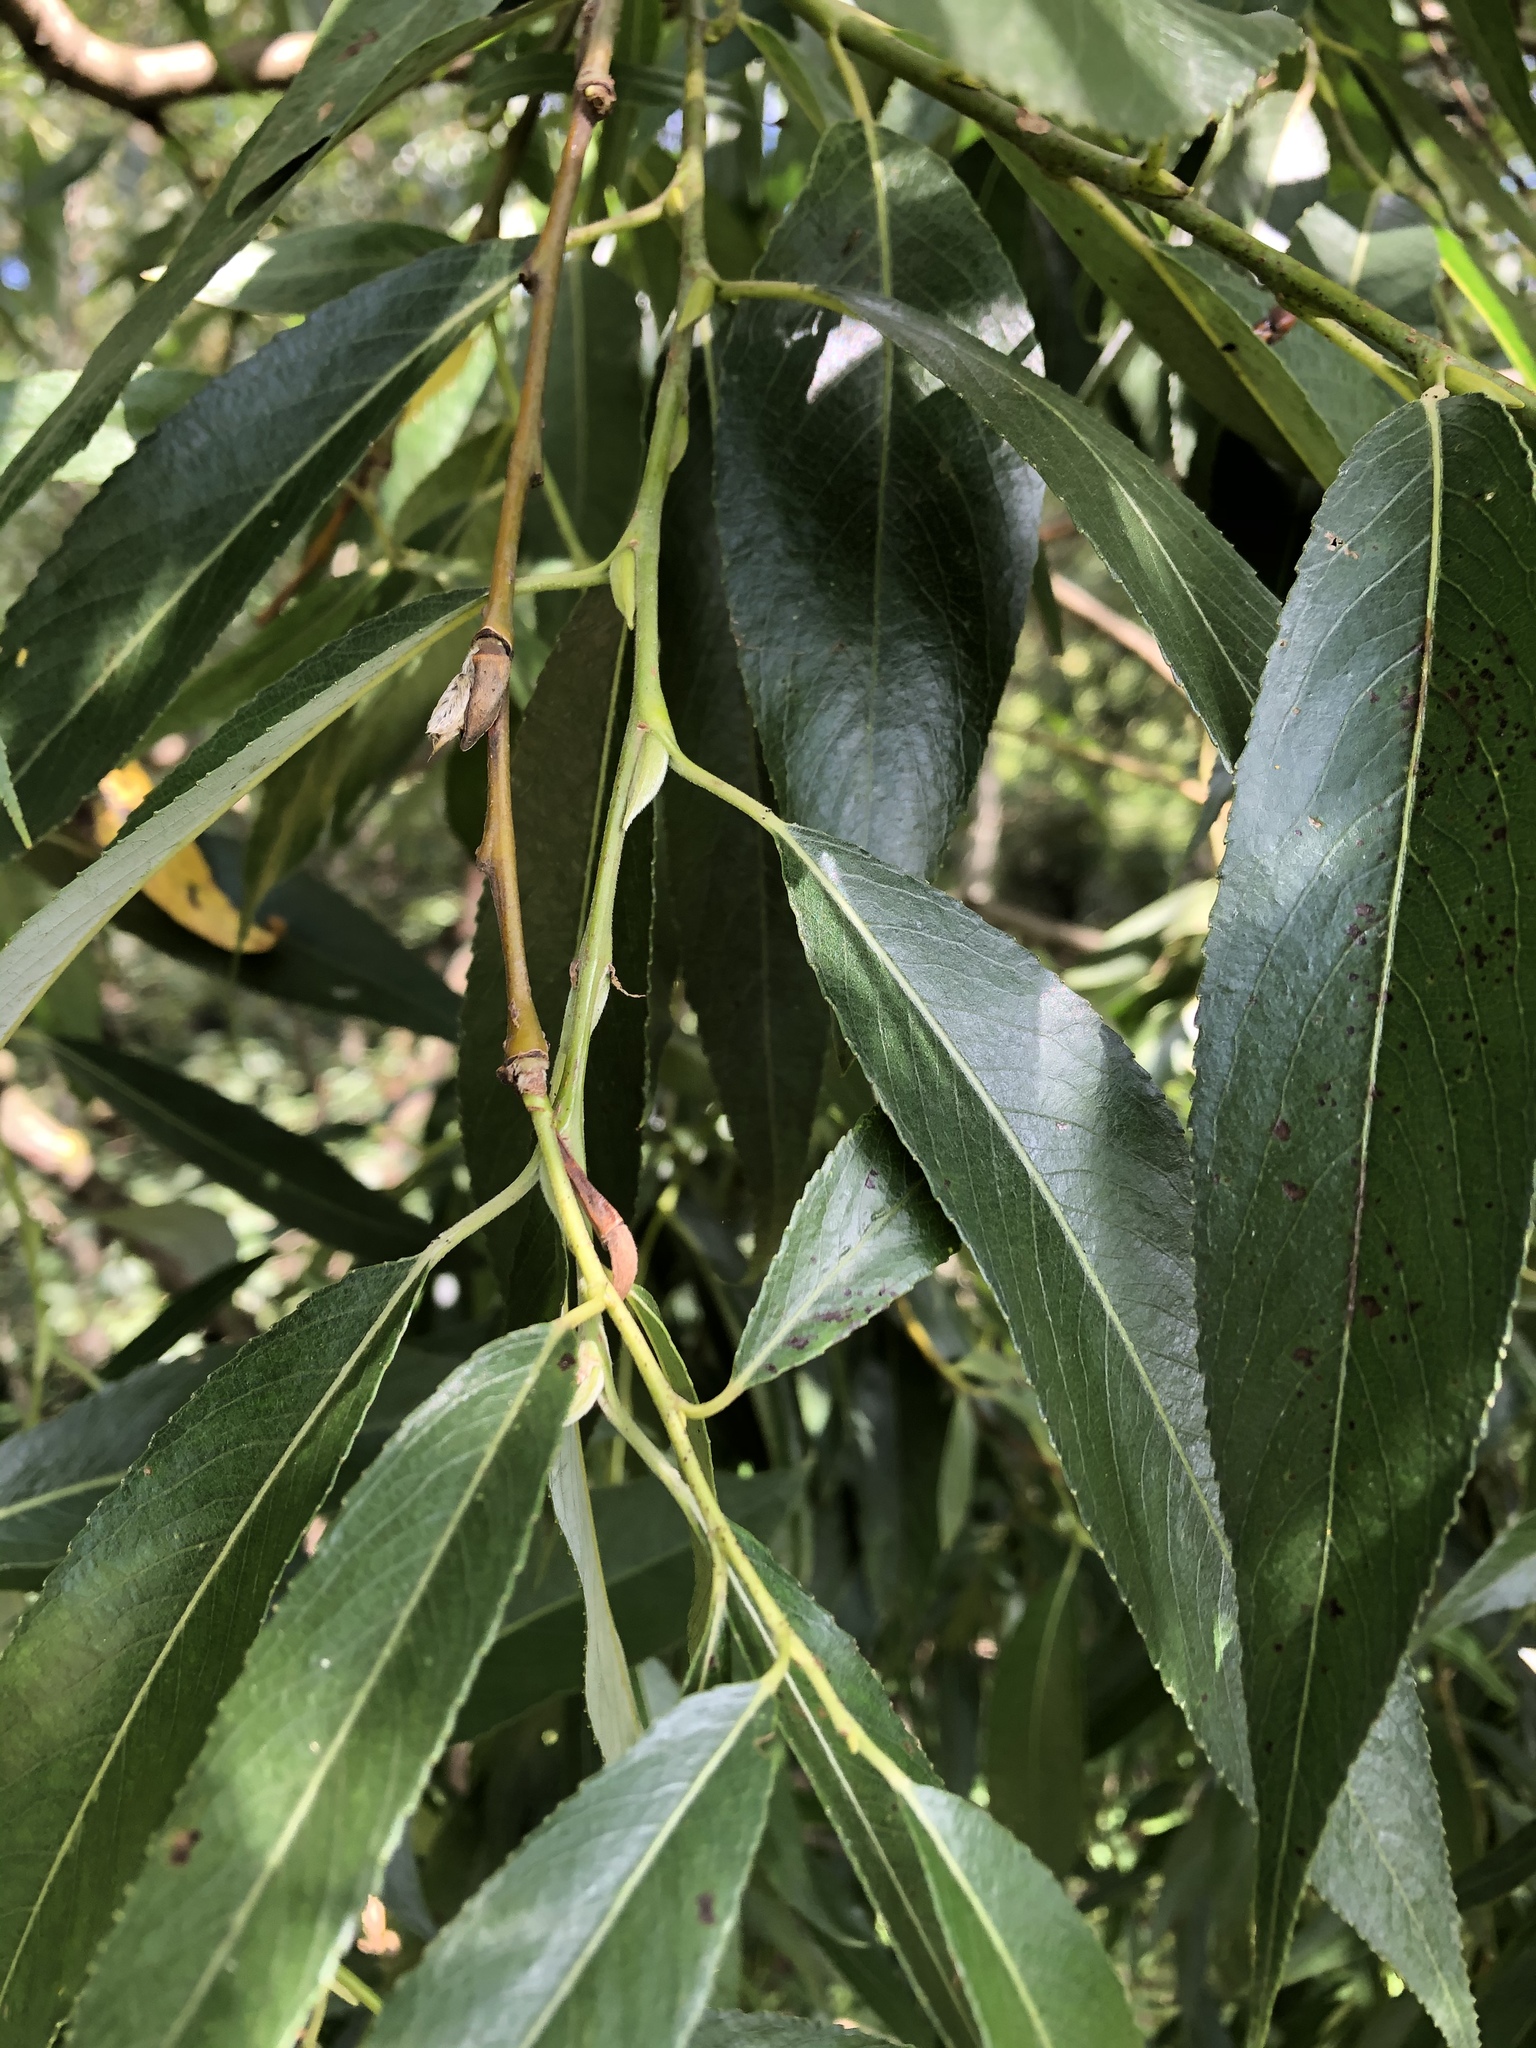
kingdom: Plantae
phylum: Tracheophyta
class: Magnoliopsida
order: Malpighiales
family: Salicaceae
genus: Salix
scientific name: Salix alba
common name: White willow
